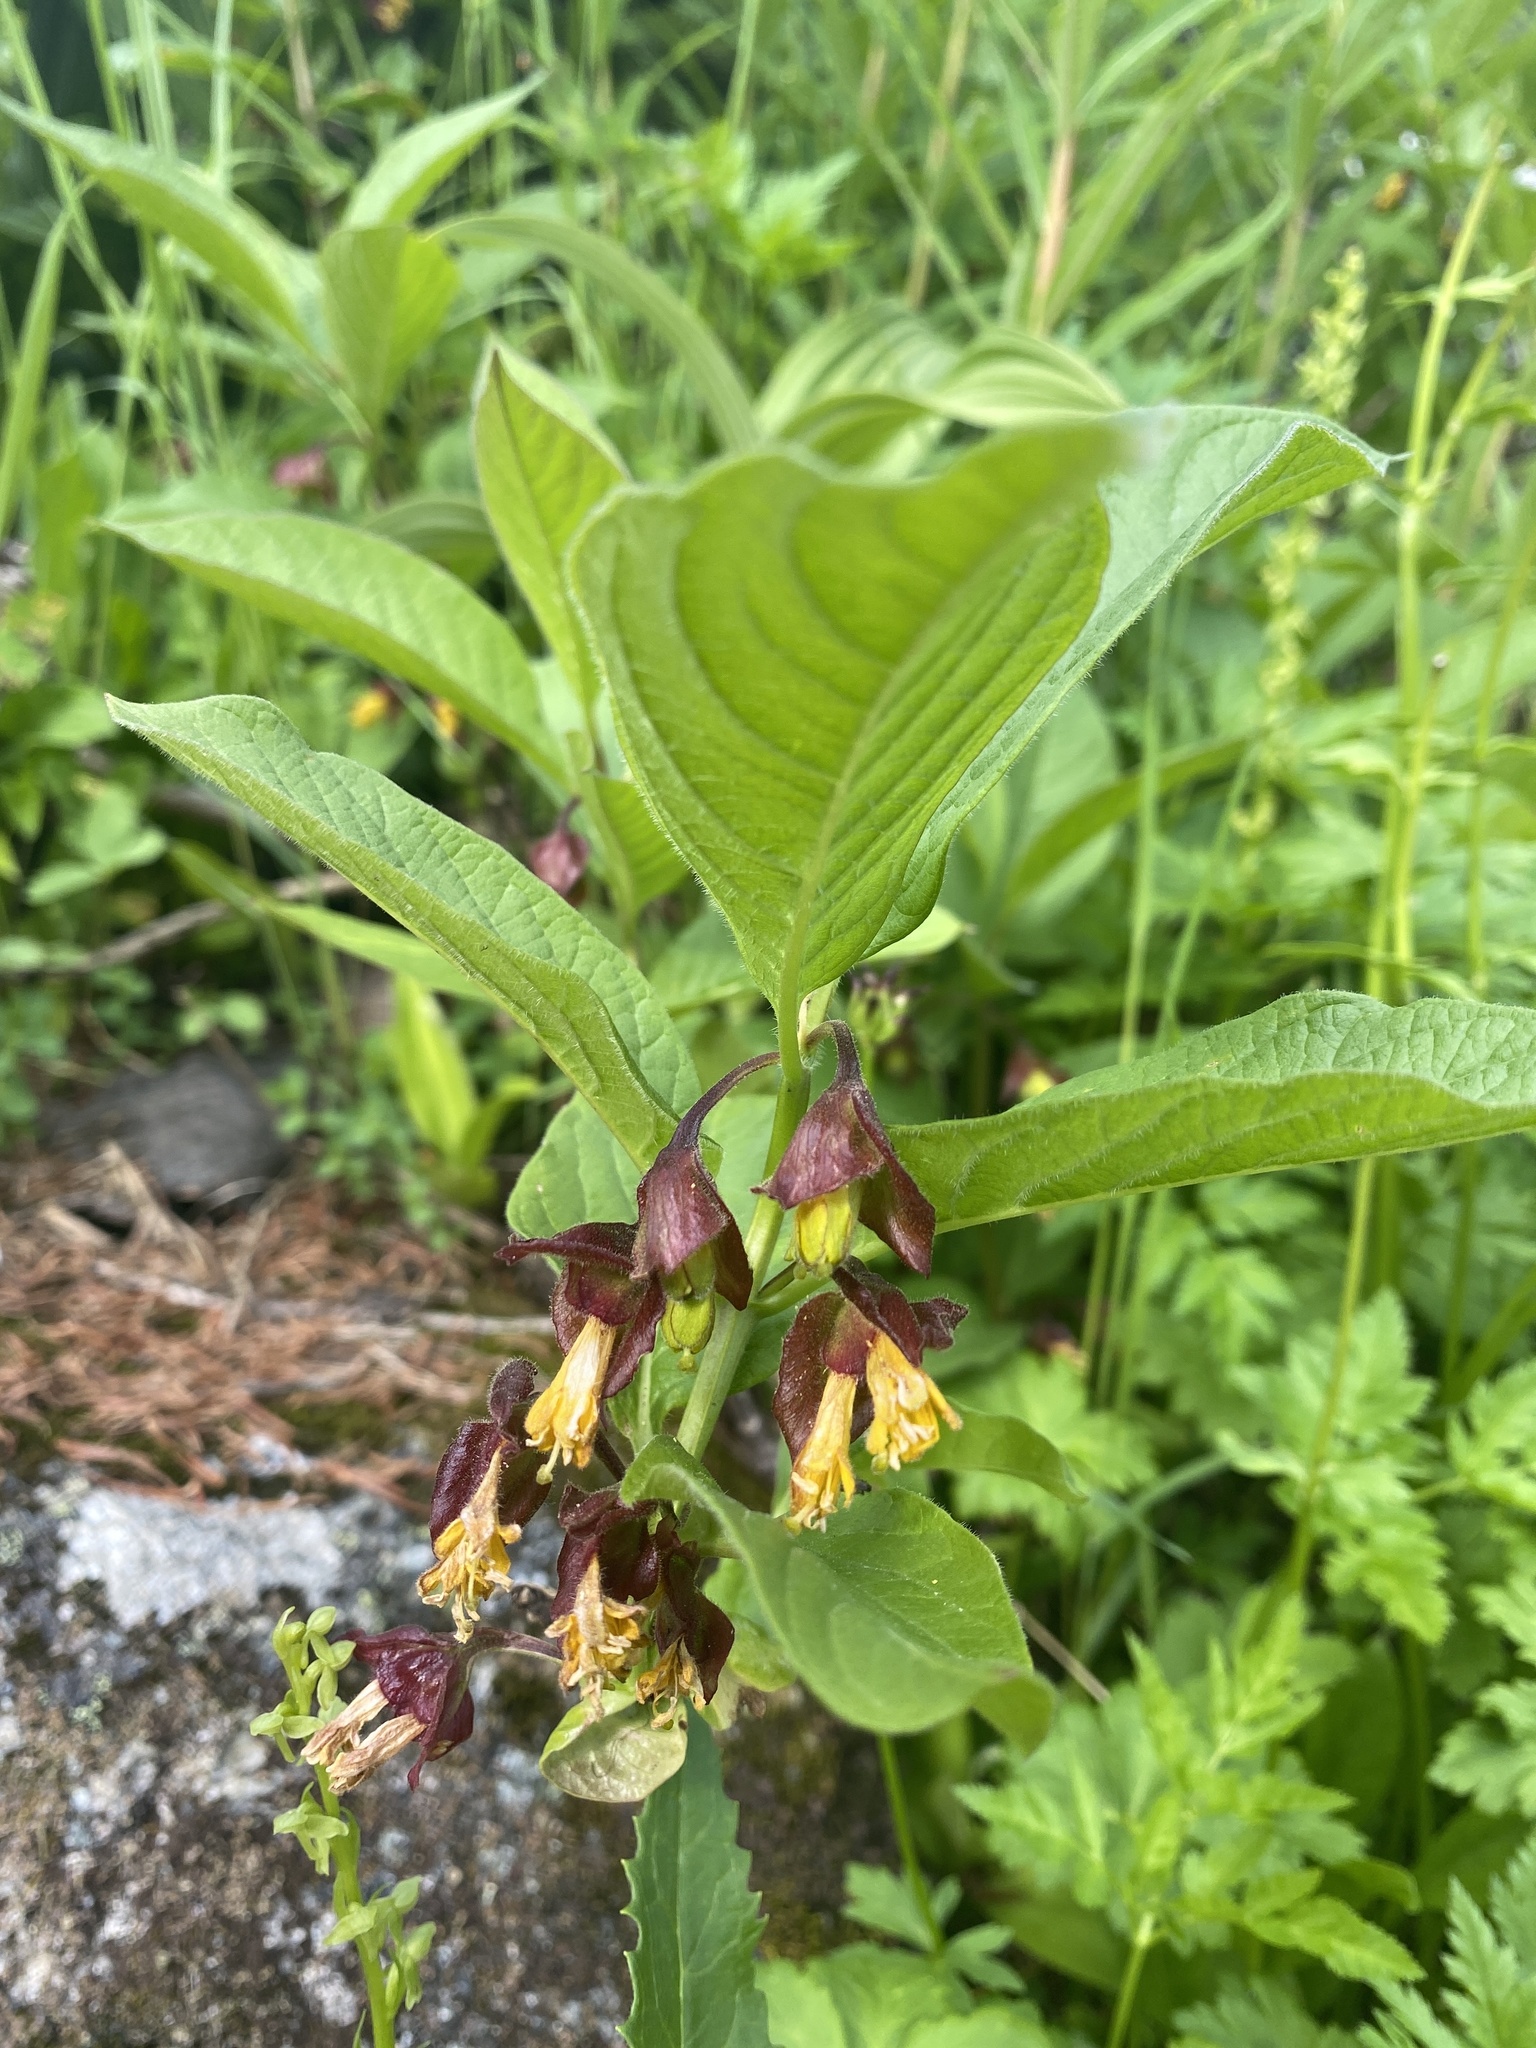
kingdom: Plantae
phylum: Tracheophyta
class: Magnoliopsida
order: Dipsacales
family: Caprifoliaceae
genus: Lonicera
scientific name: Lonicera involucrata
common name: Californian honeysuckle
